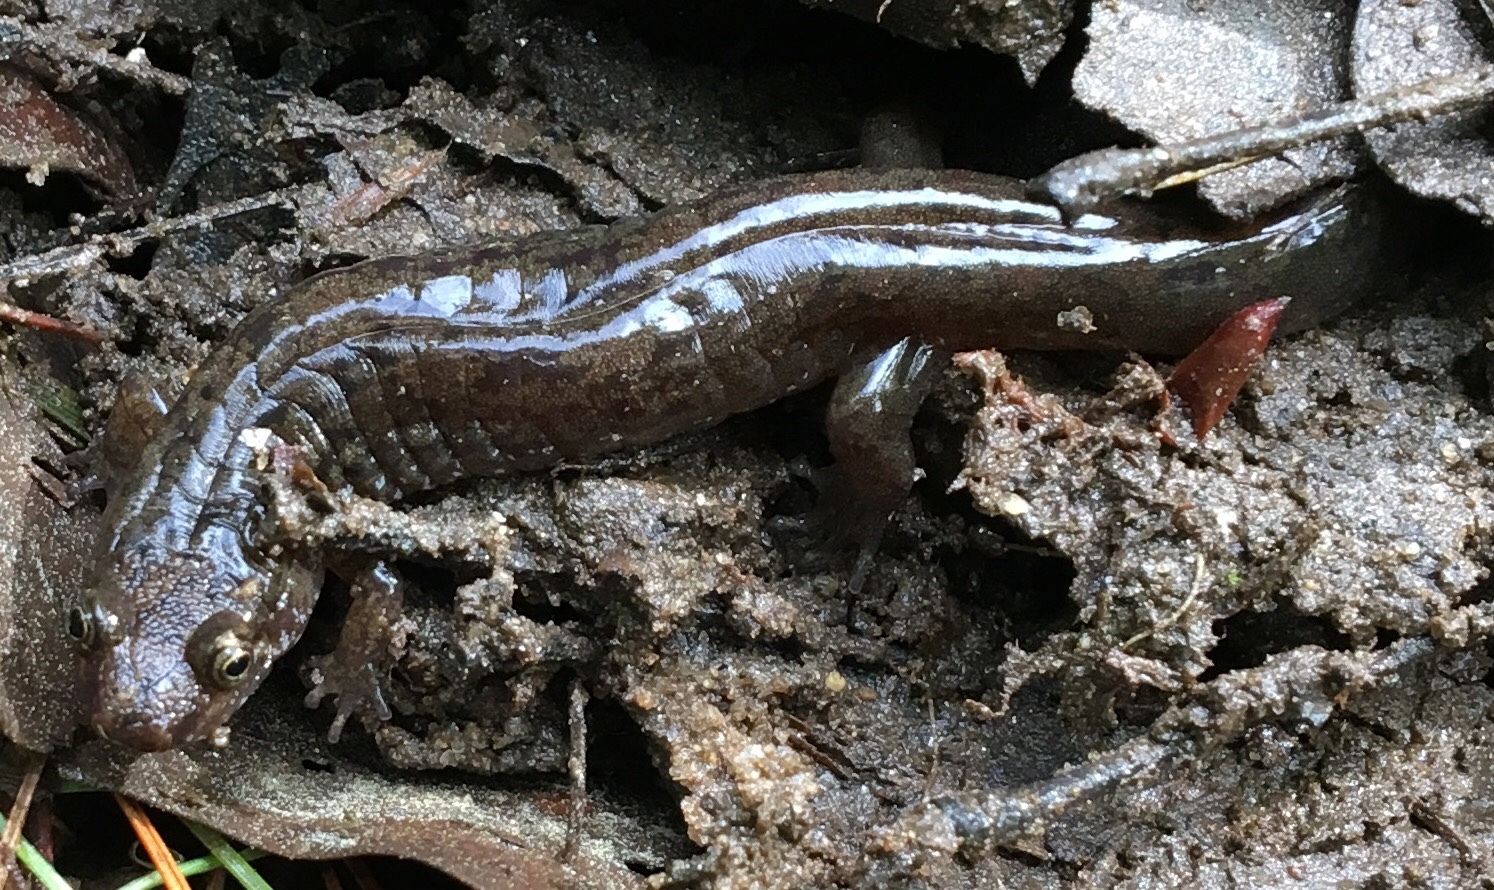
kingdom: Animalia
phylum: Chordata
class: Amphibia
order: Caudata
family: Plethodontidae
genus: Desmognathus
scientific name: Desmognathus monticola
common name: Seal salamander
